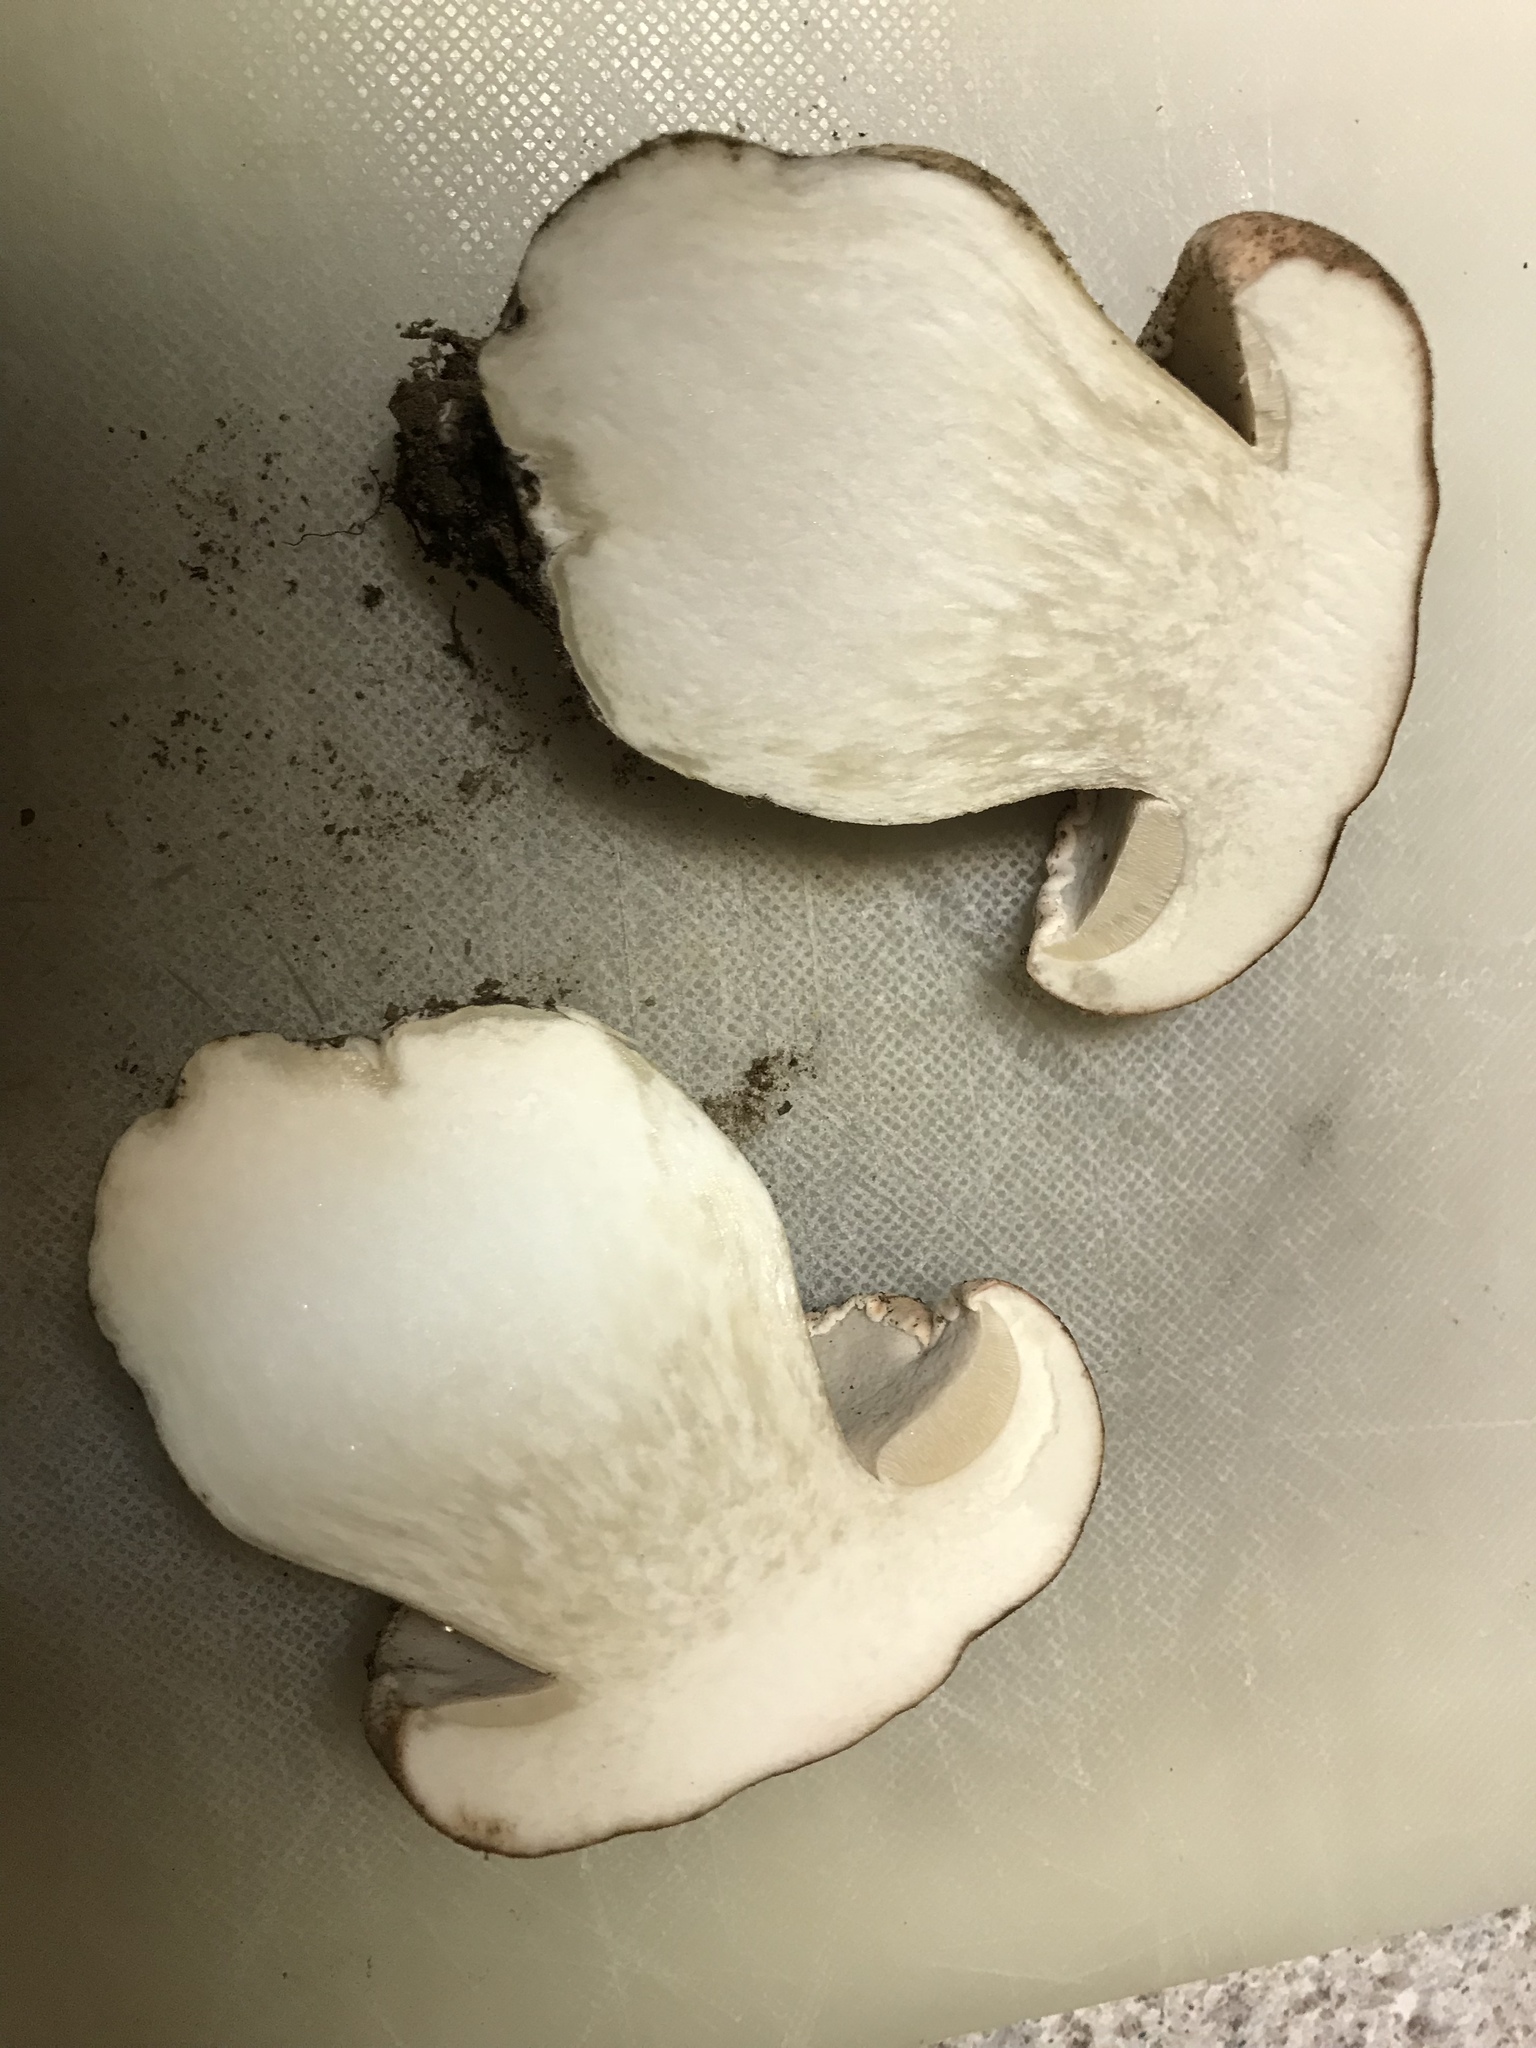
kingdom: Fungi
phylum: Basidiomycota
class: Agaricomycetes
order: Boletales
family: Boletaceae
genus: Boletus
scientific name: Boletus rex-veris
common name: Spring king
